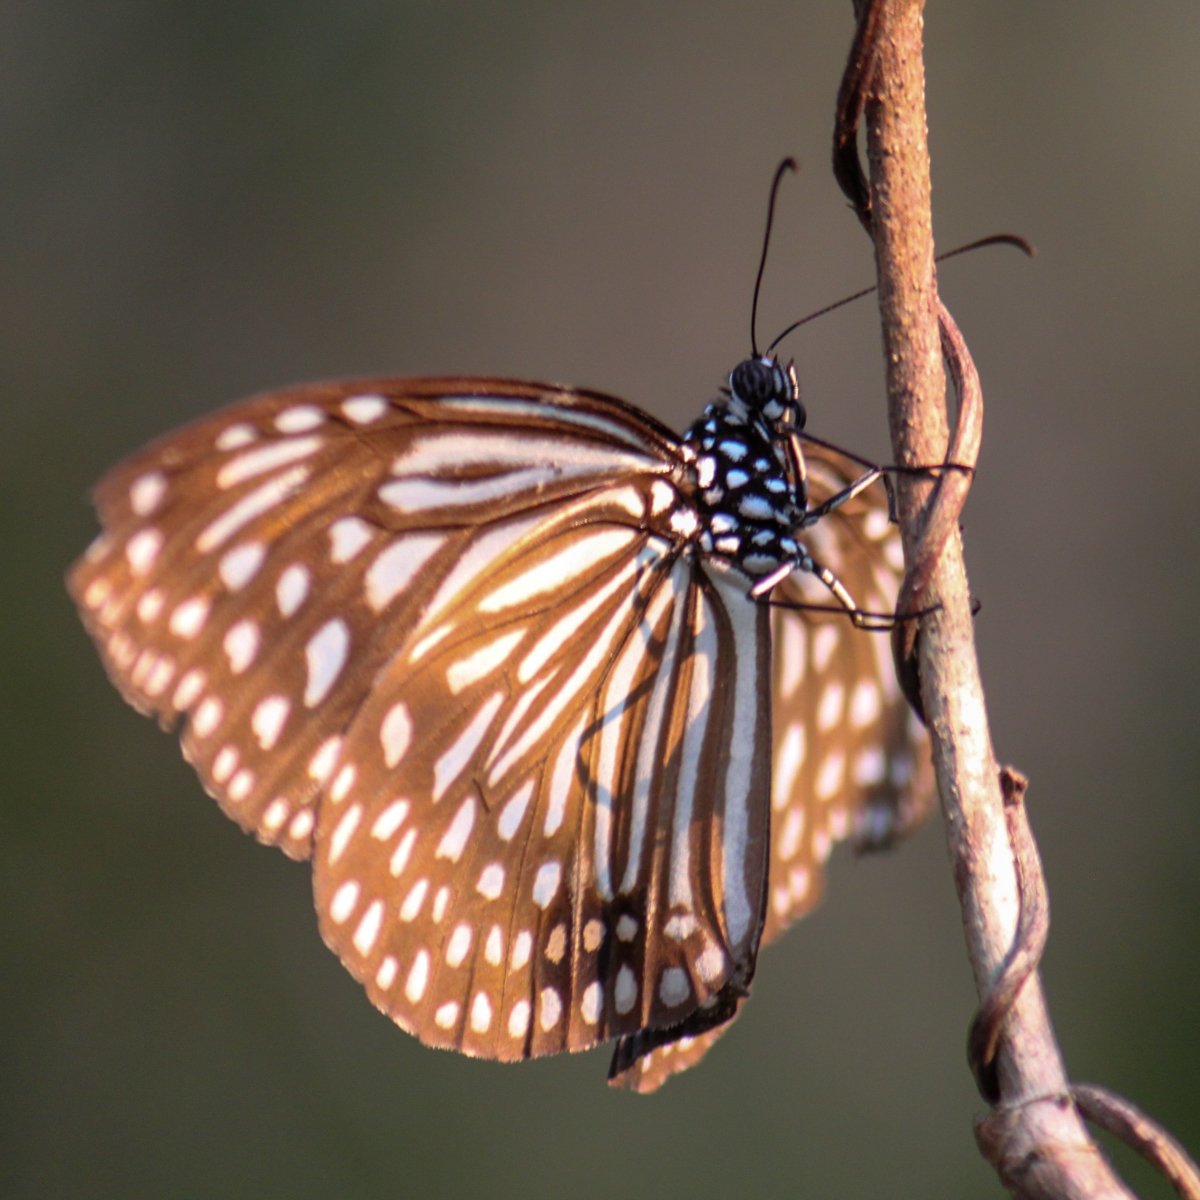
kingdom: Animalia
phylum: Arthropoda
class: Insecta
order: Lepidoptera
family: Nymphalidae
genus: Parantica
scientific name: Parantica agleoides
